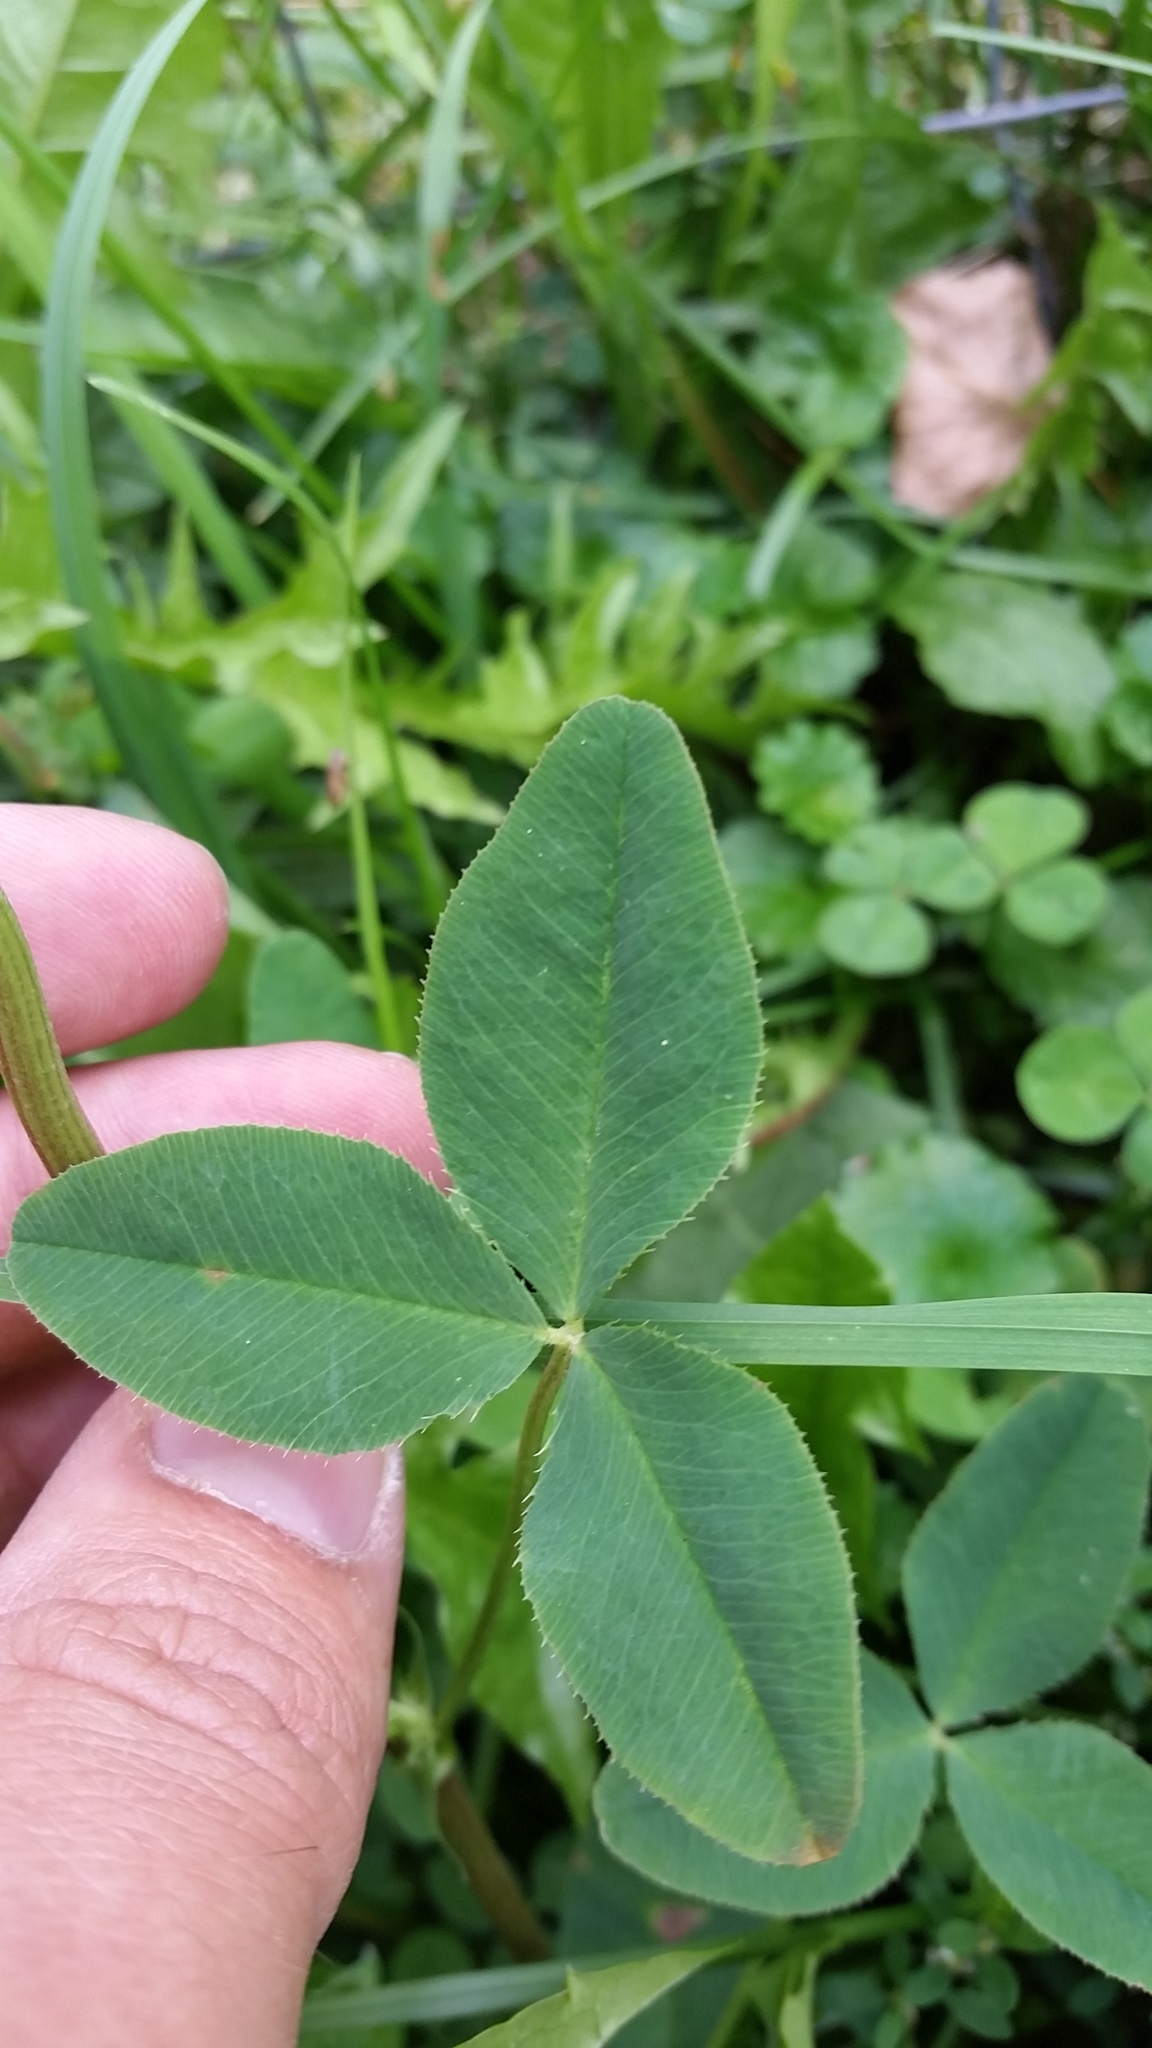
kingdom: Plantae
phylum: Tracheophyta
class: Magnoliopsida
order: Fabales
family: Fabaceae
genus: Trifolium
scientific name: Trifolium hybridum
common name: Alsike clover
